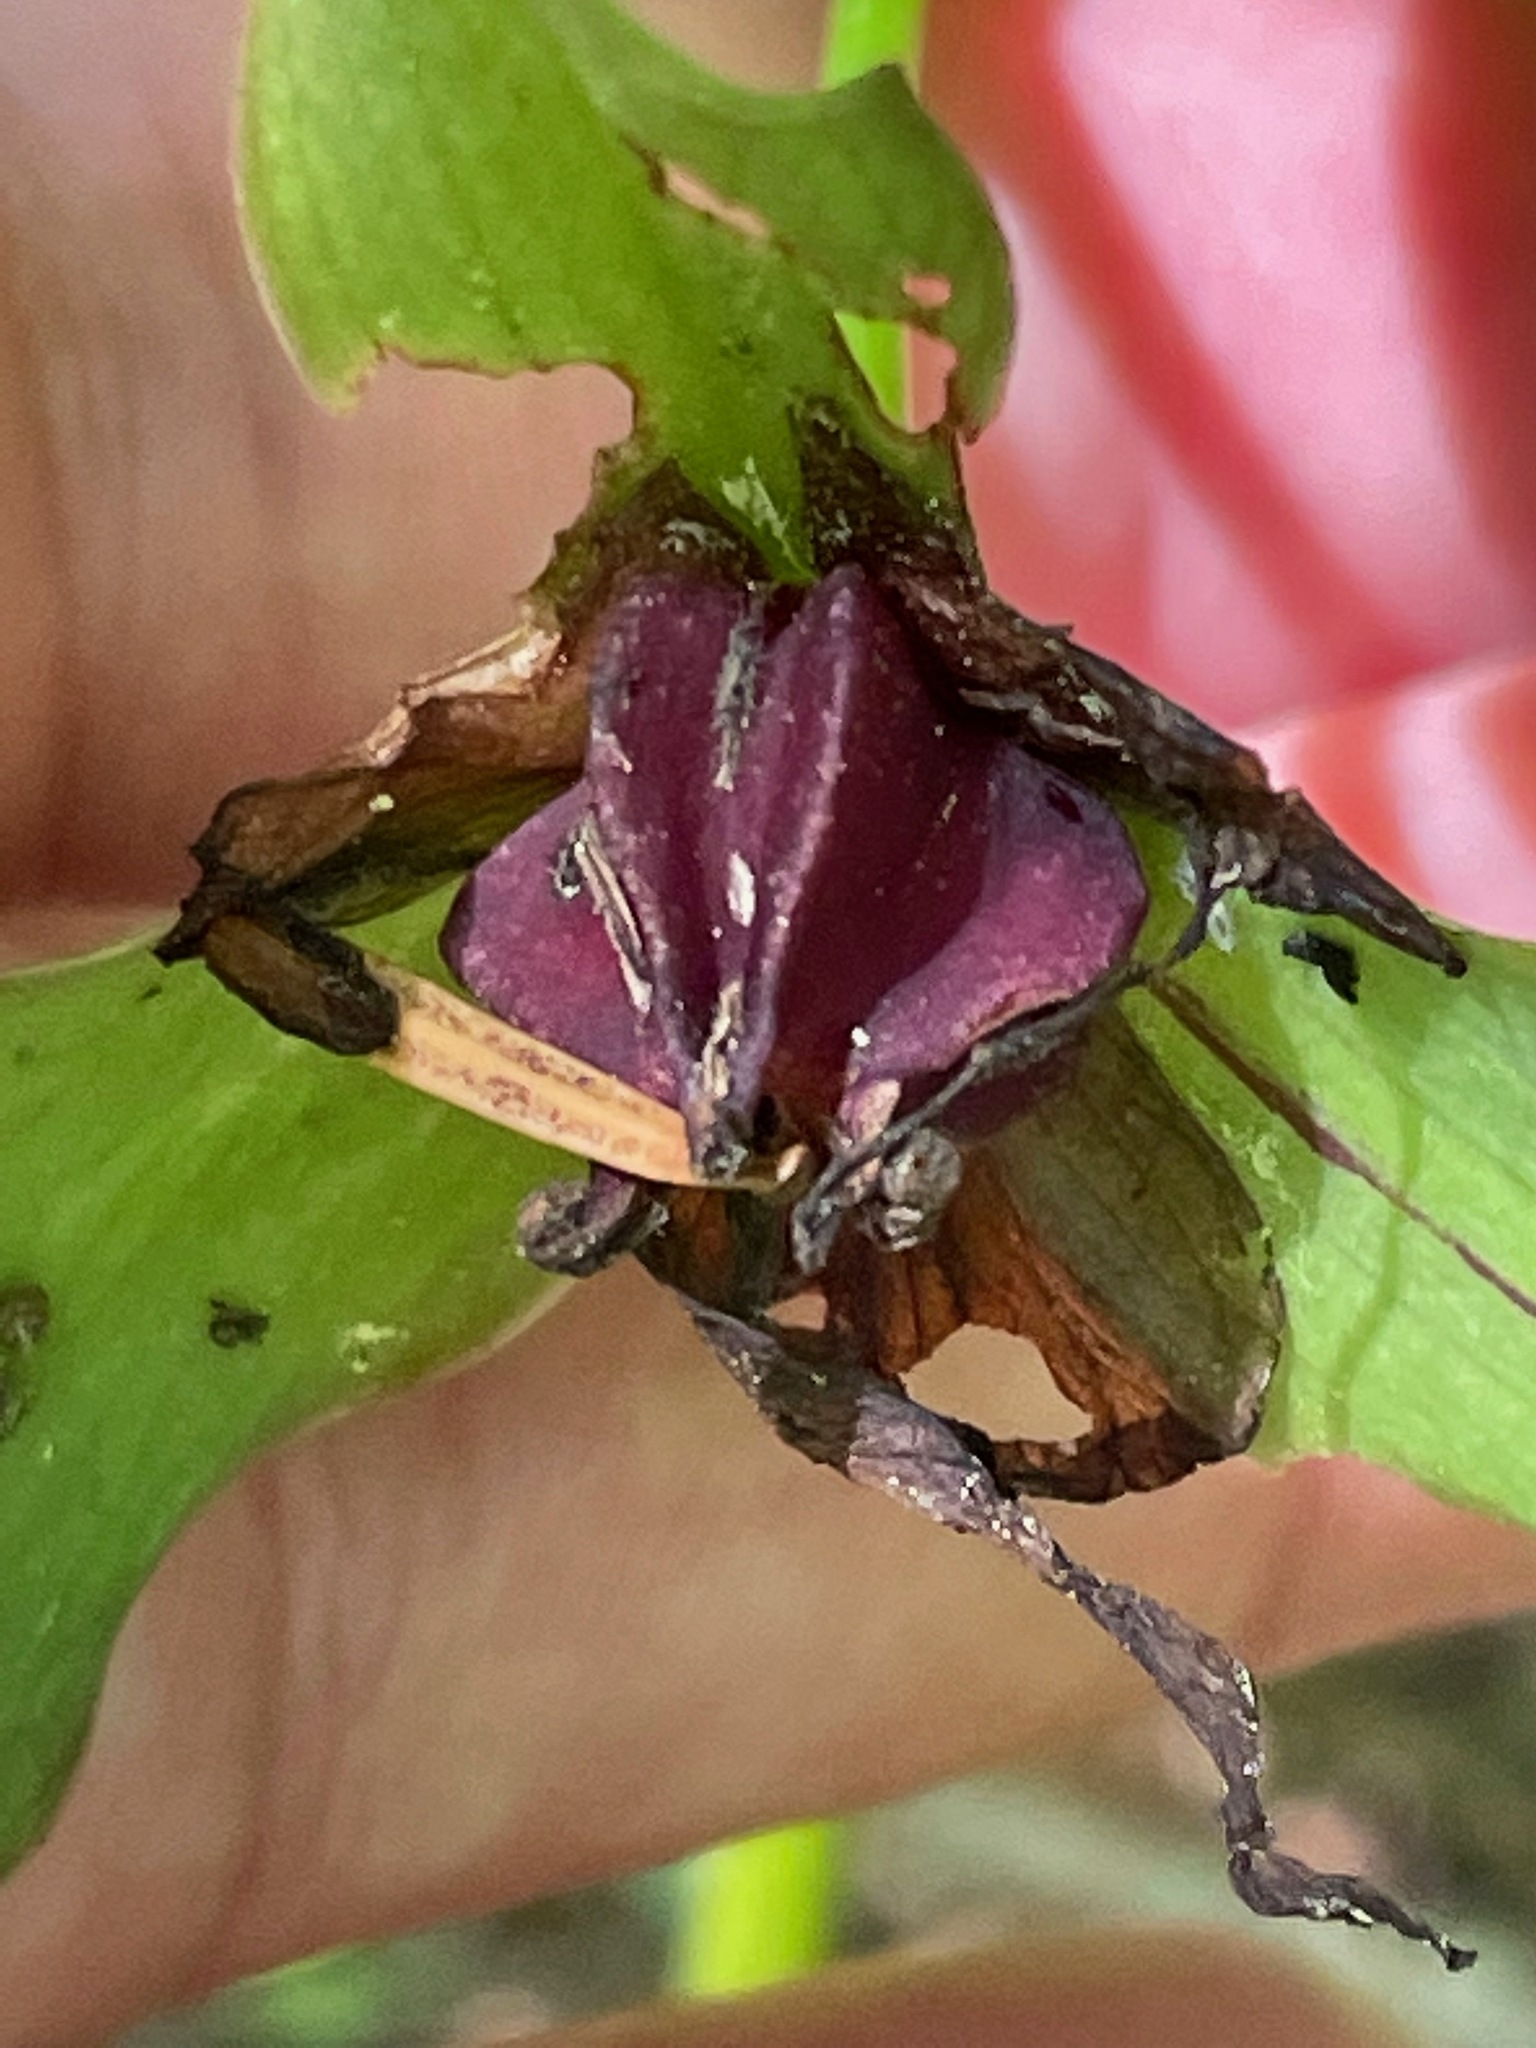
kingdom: Plantae
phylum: Tracheophyta
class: Liliopsida
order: Liliales
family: Melanthiaceae
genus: Trillium
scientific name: Trillium erectum
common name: Purple trillium
